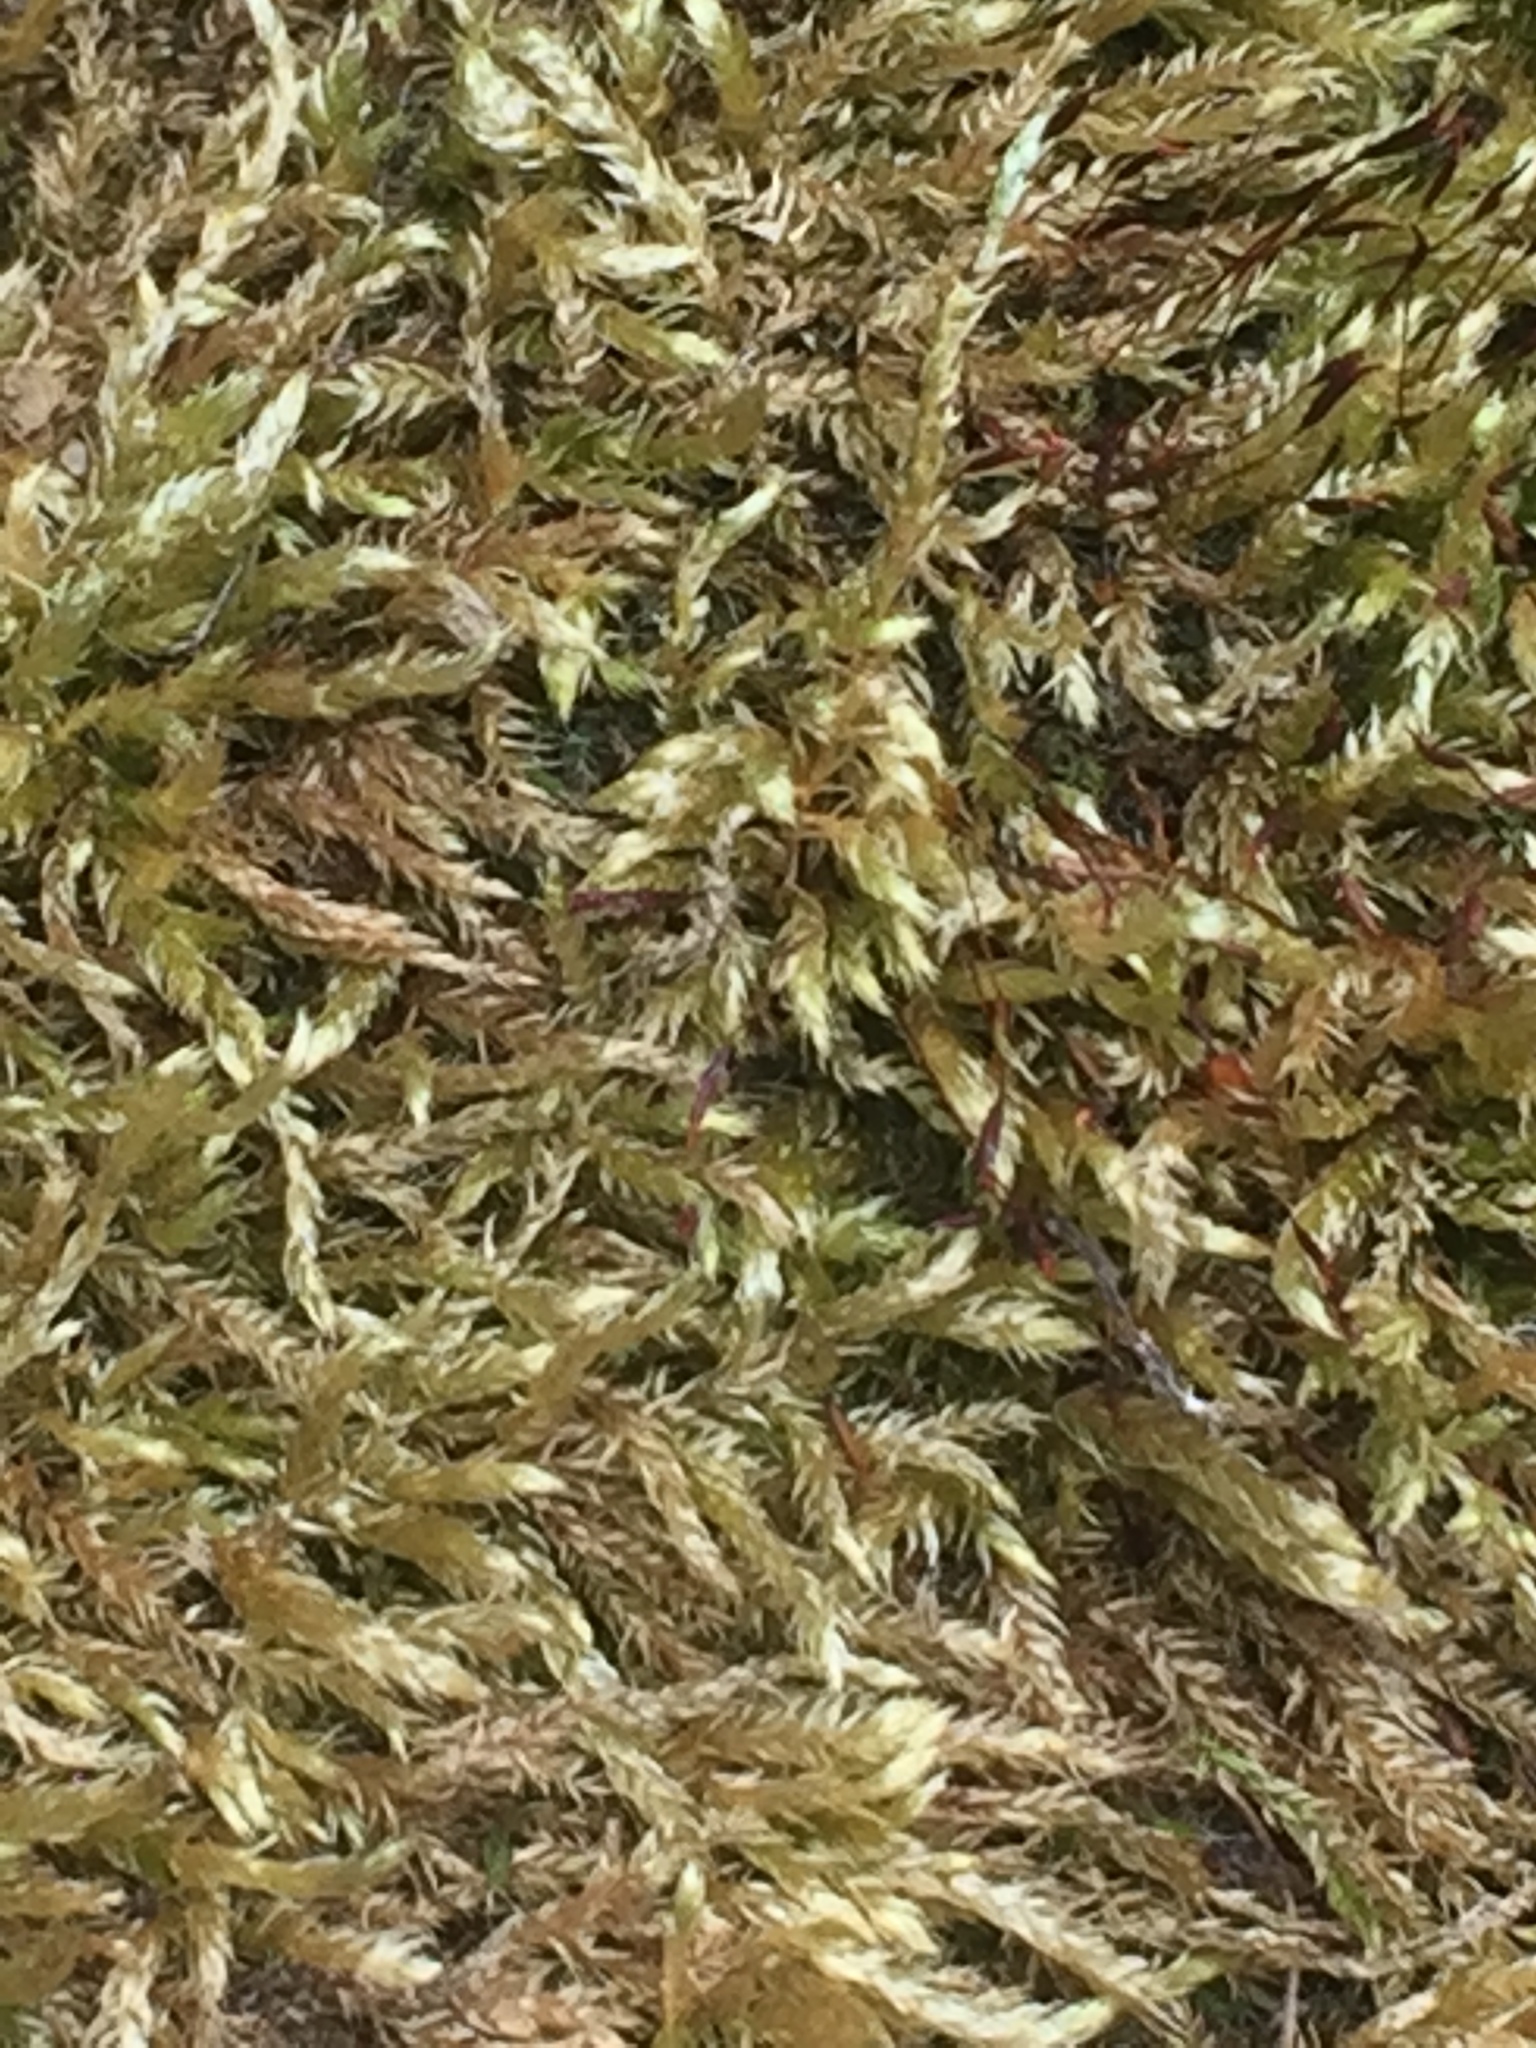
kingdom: Plantae
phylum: Bryophyta
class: Bryopsida
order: Hypnales
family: Brachytheciaceae
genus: Brachythecium
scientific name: Brachythecium rutabulum
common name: Rough-stalked feather-moss
